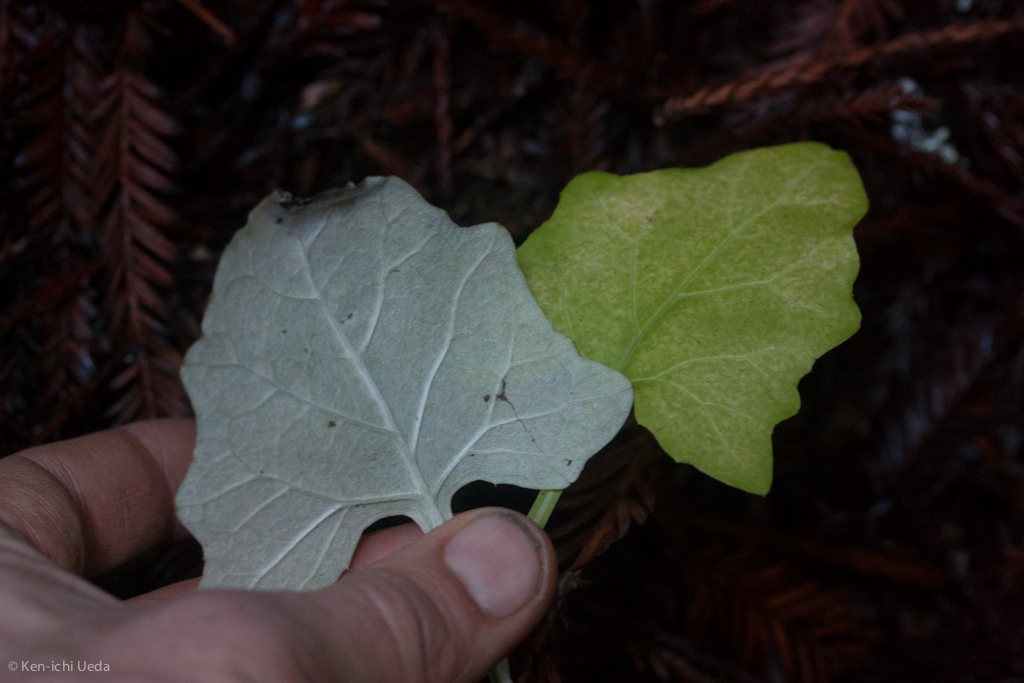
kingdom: Plantae
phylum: Tracheophyta
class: Magnoliopsida
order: Asterales
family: Asteraceae
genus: Adenocaulon
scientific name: Adenocaulon bicolor
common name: Trailplant
